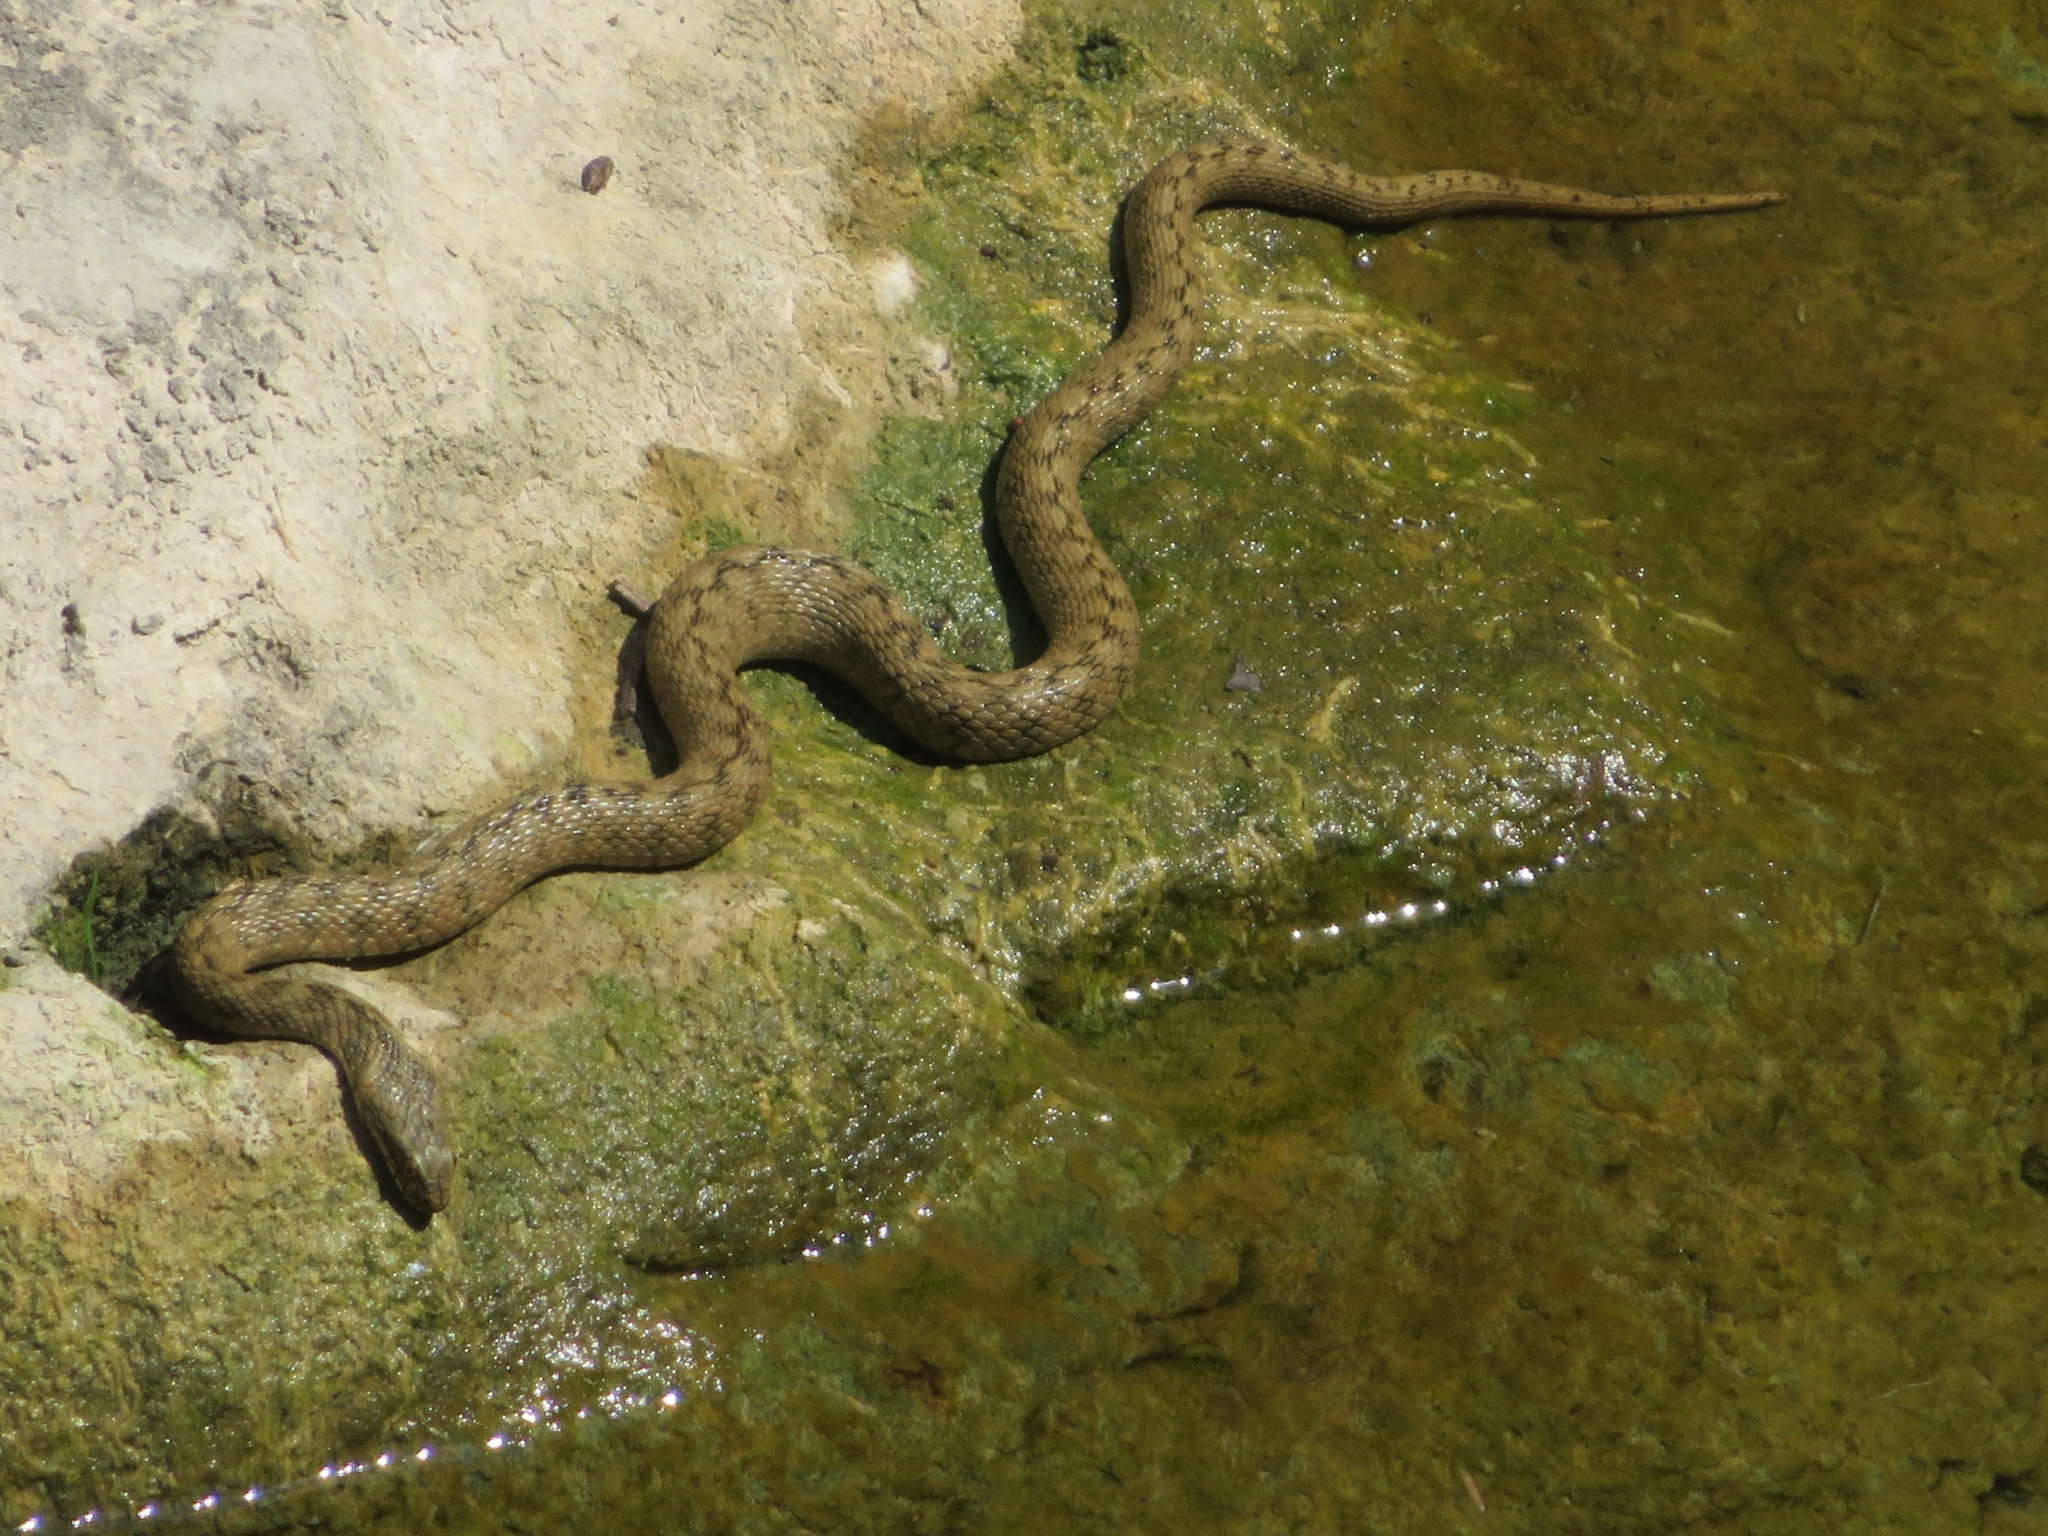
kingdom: Animalia
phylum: Chordata
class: Squamata
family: Colubridae
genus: Natrix
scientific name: Natrix maura
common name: Viperine water snake
